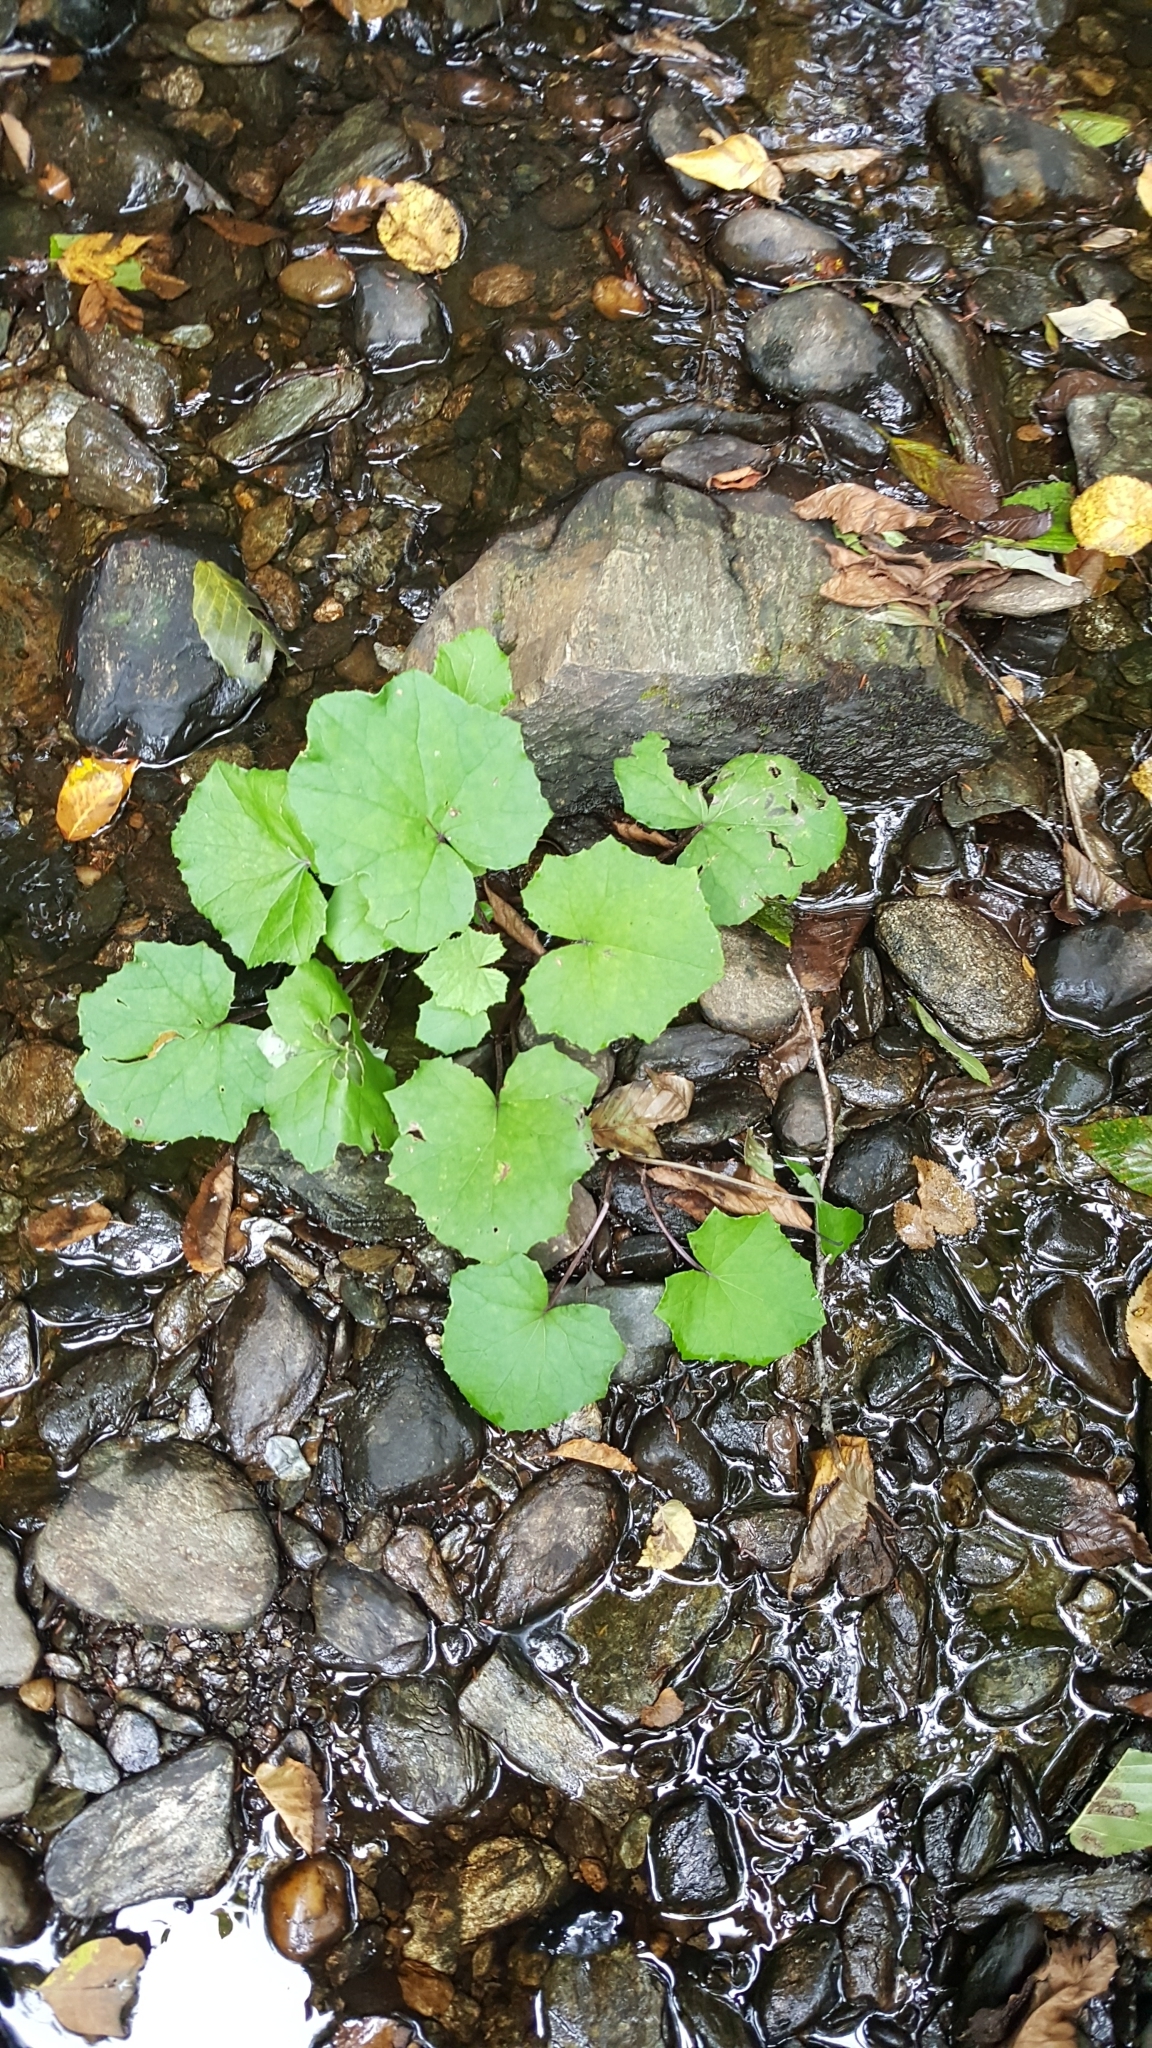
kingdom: Plantae
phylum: Tracheophyta
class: Magnoliopsida
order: Asterales
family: Asteraceae
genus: Tussilago
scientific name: Tussilago farfara
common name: Coltsfoot
